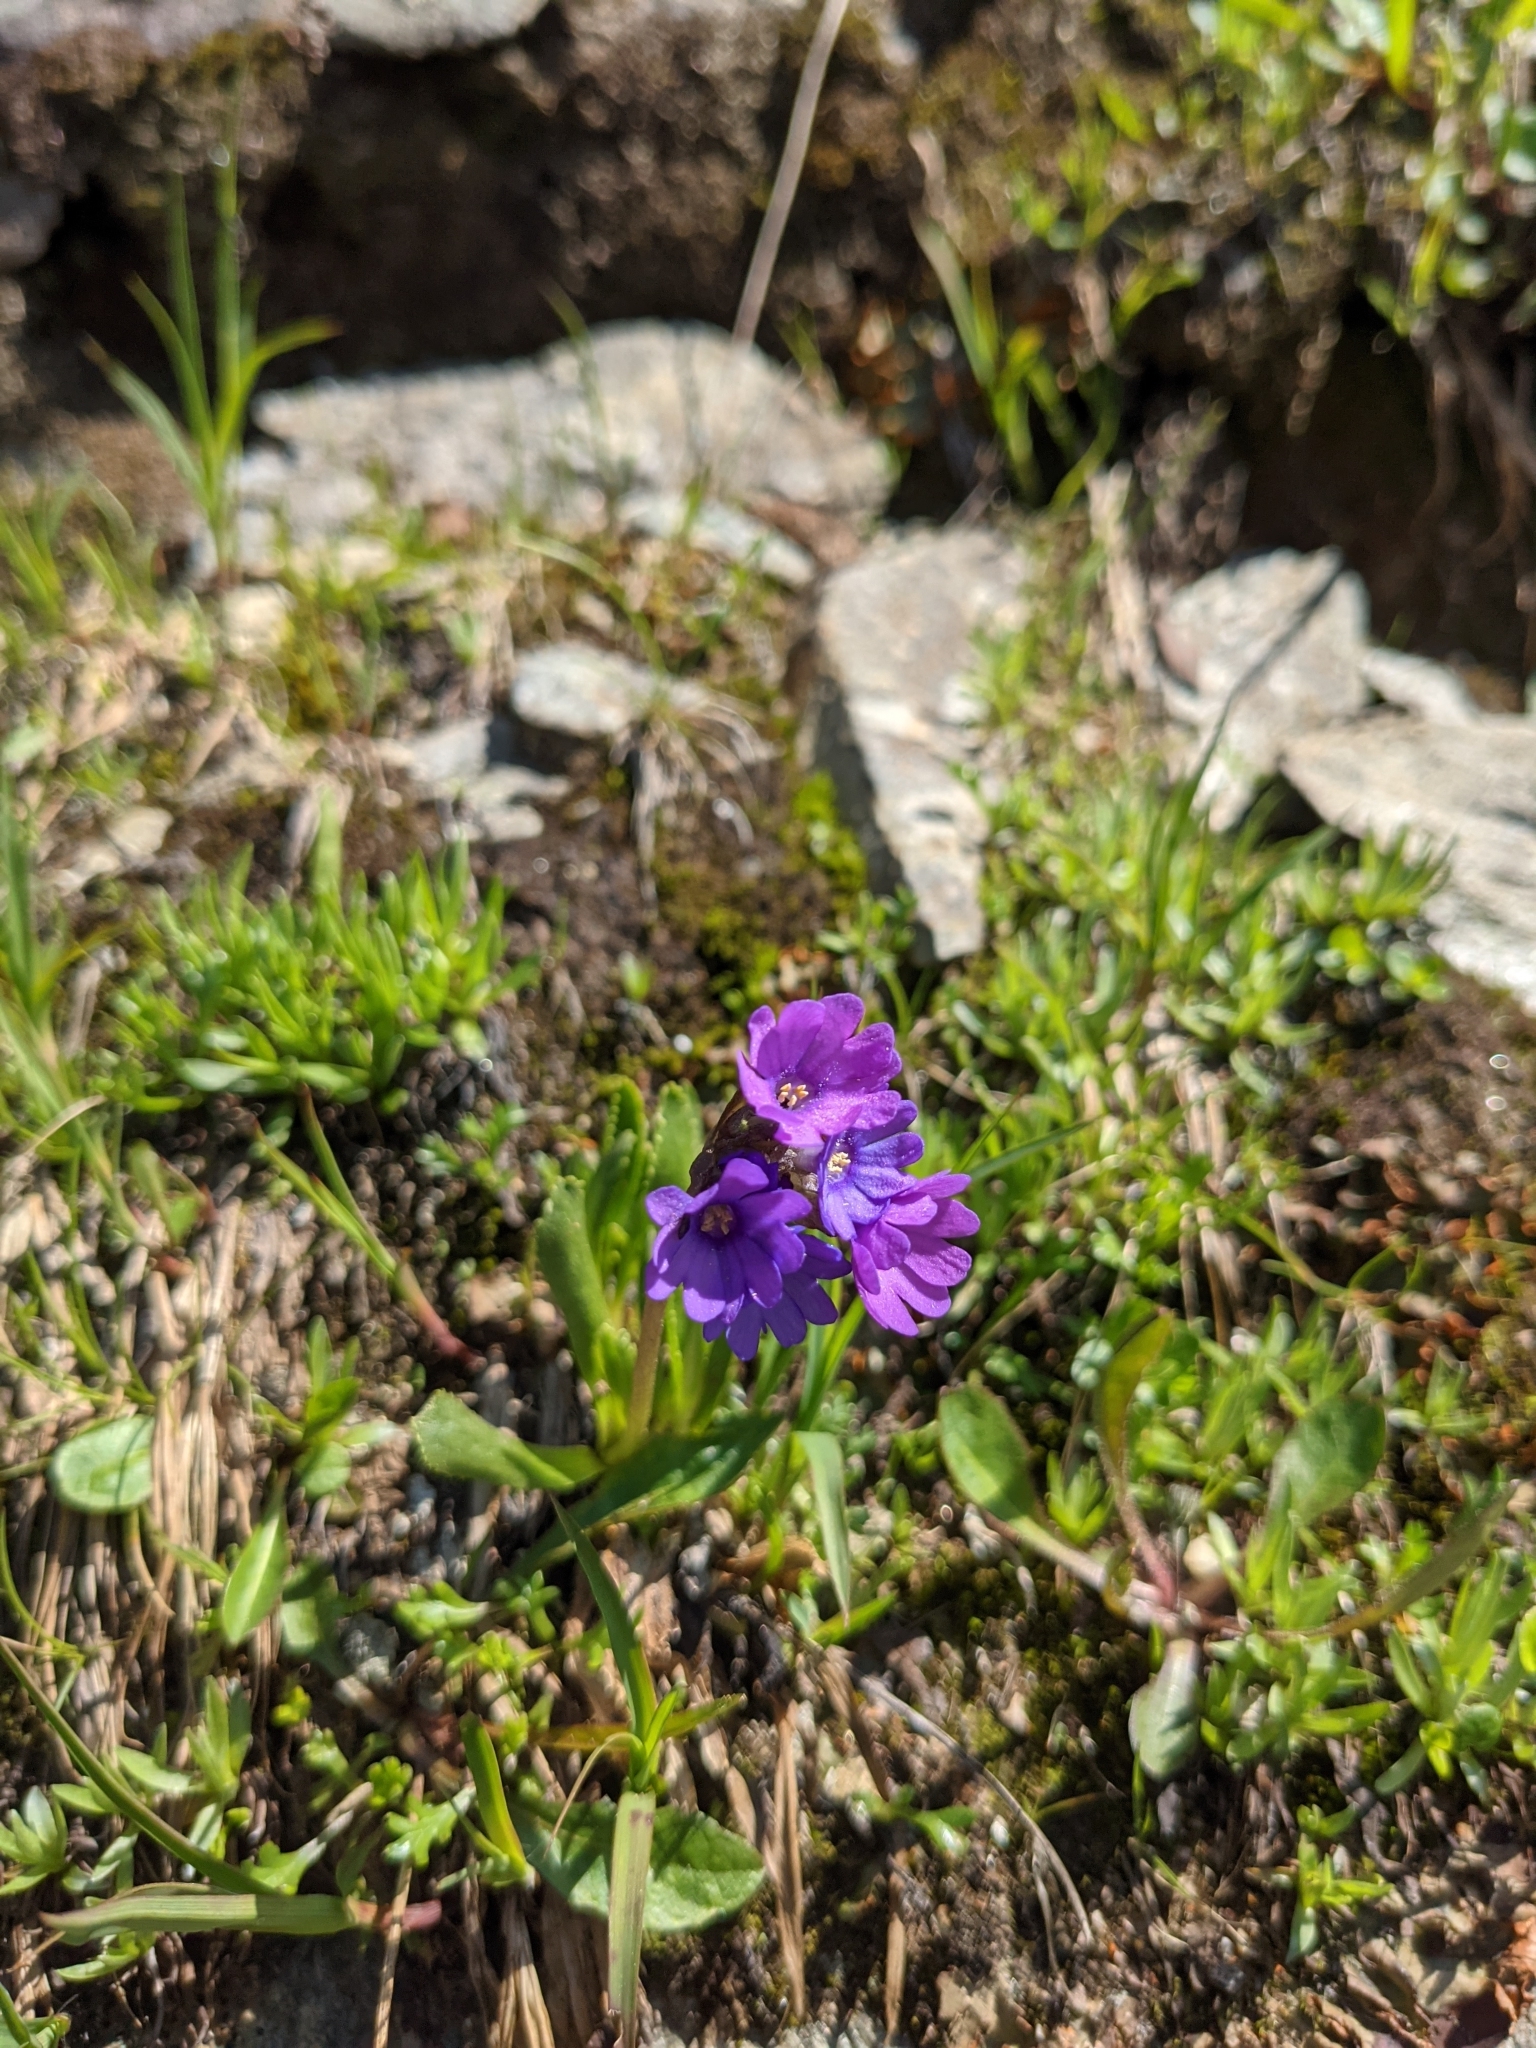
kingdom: Plantae
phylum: Tracheophyta
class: Magnoliopsida
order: Ericales
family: Primulaceae
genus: Primula
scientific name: Primula glutinosa
